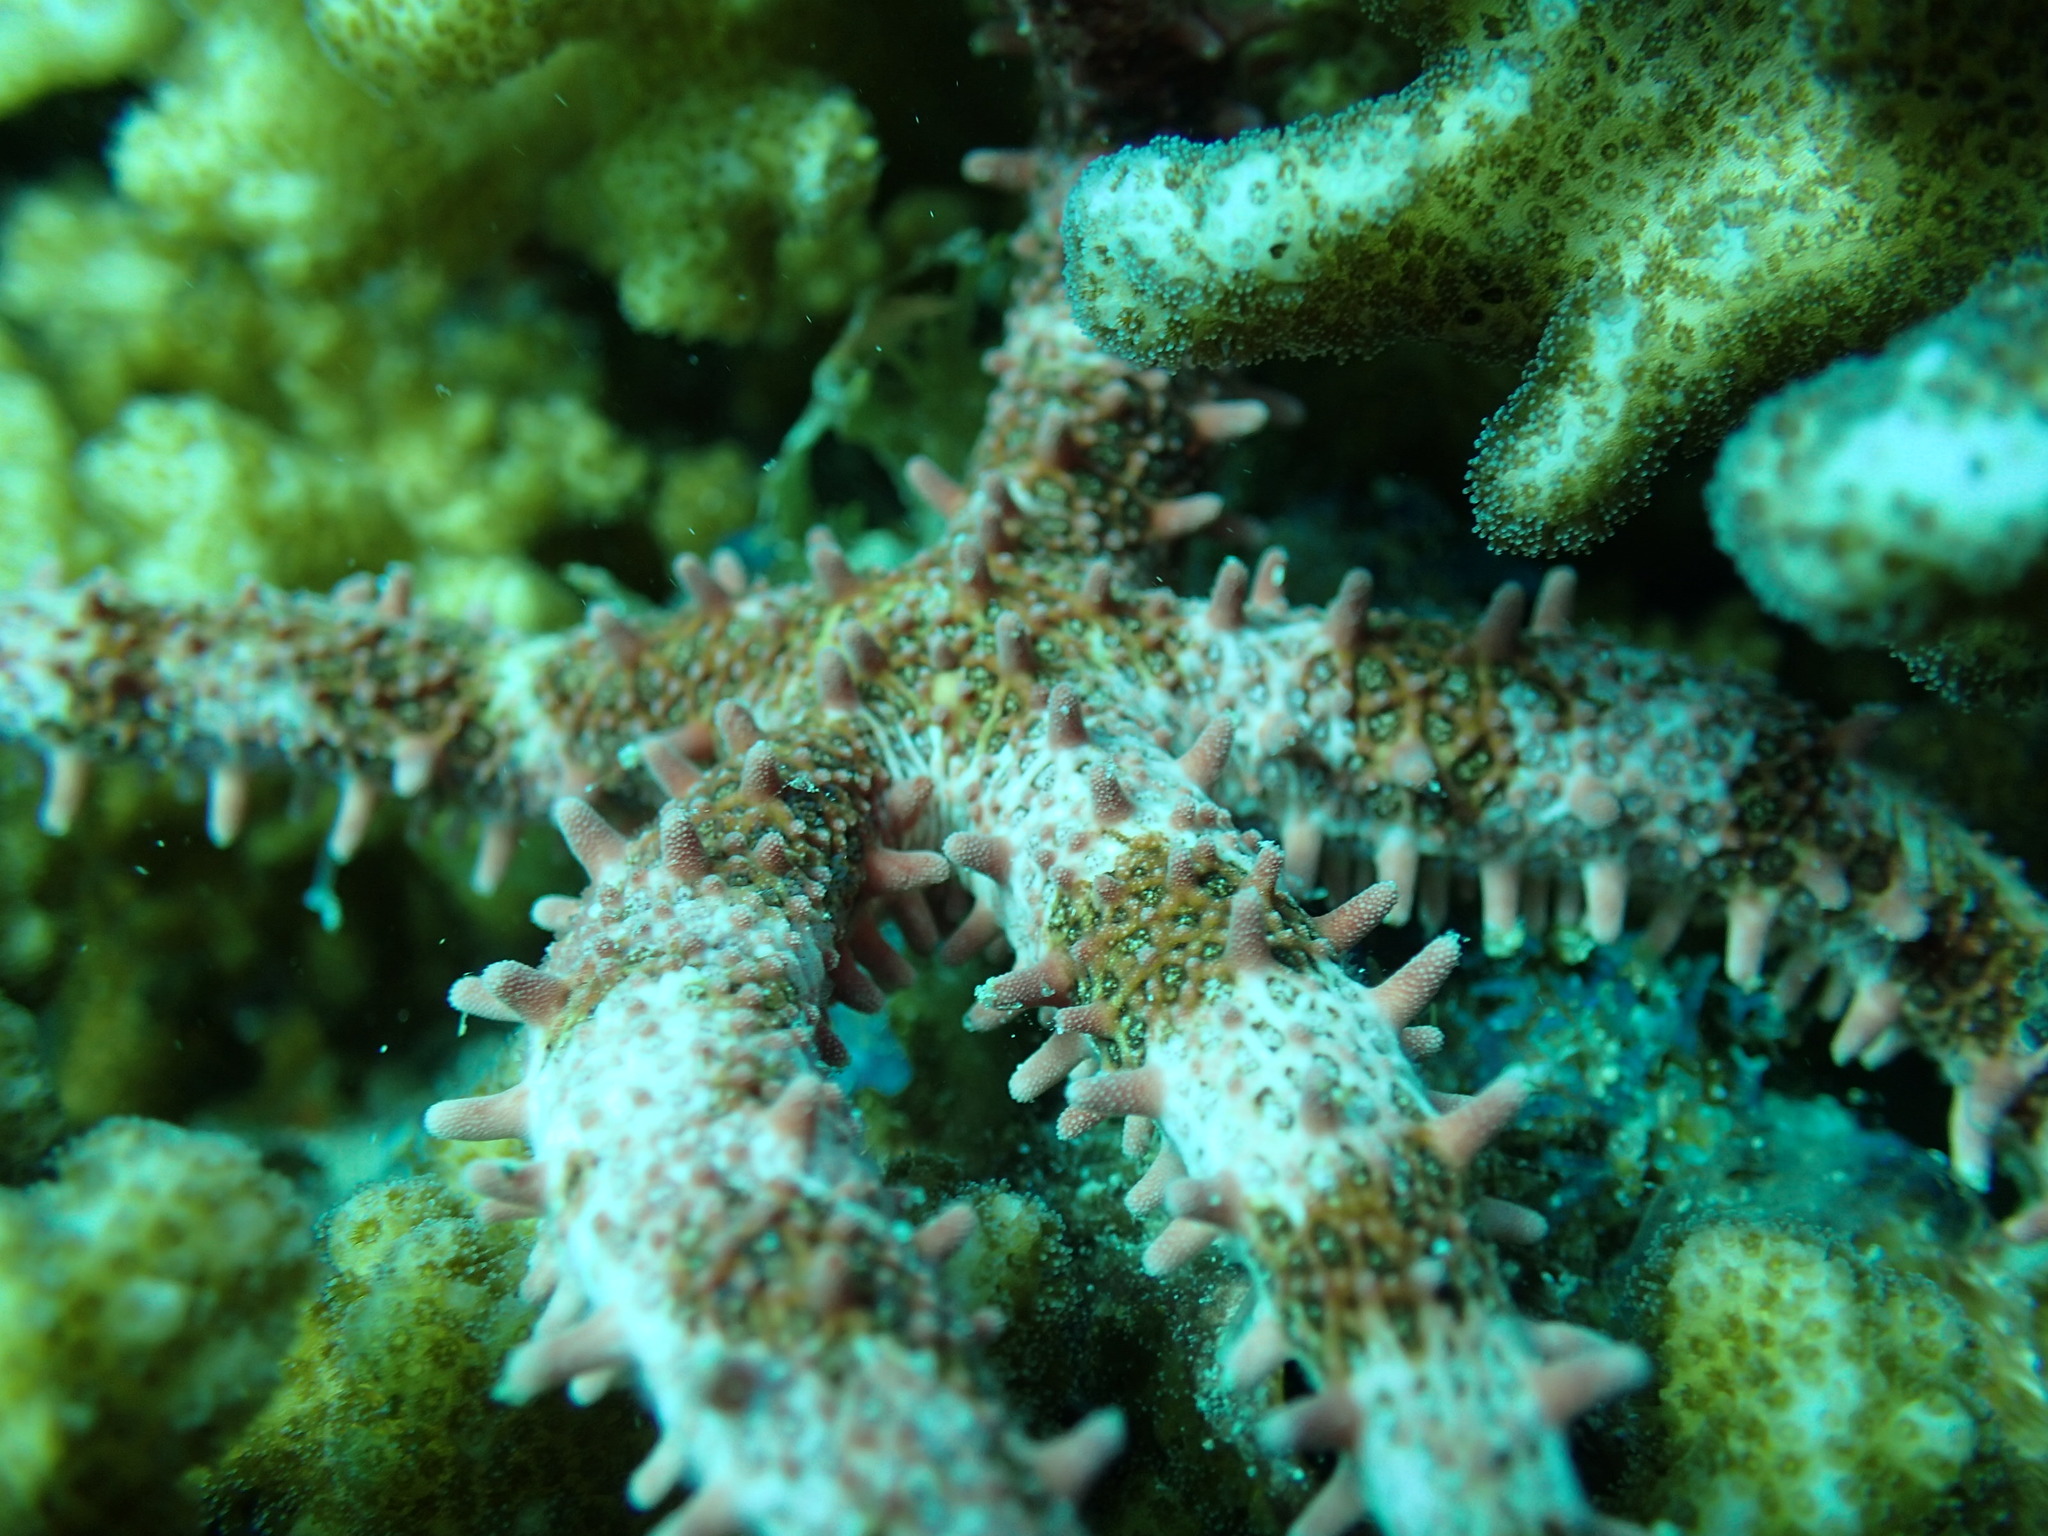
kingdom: Animalia
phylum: Echinodermata
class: Asteroidea
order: Valvatida
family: Mithrodiidae
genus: Mithrodia
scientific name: Mithrodia bradleyi
